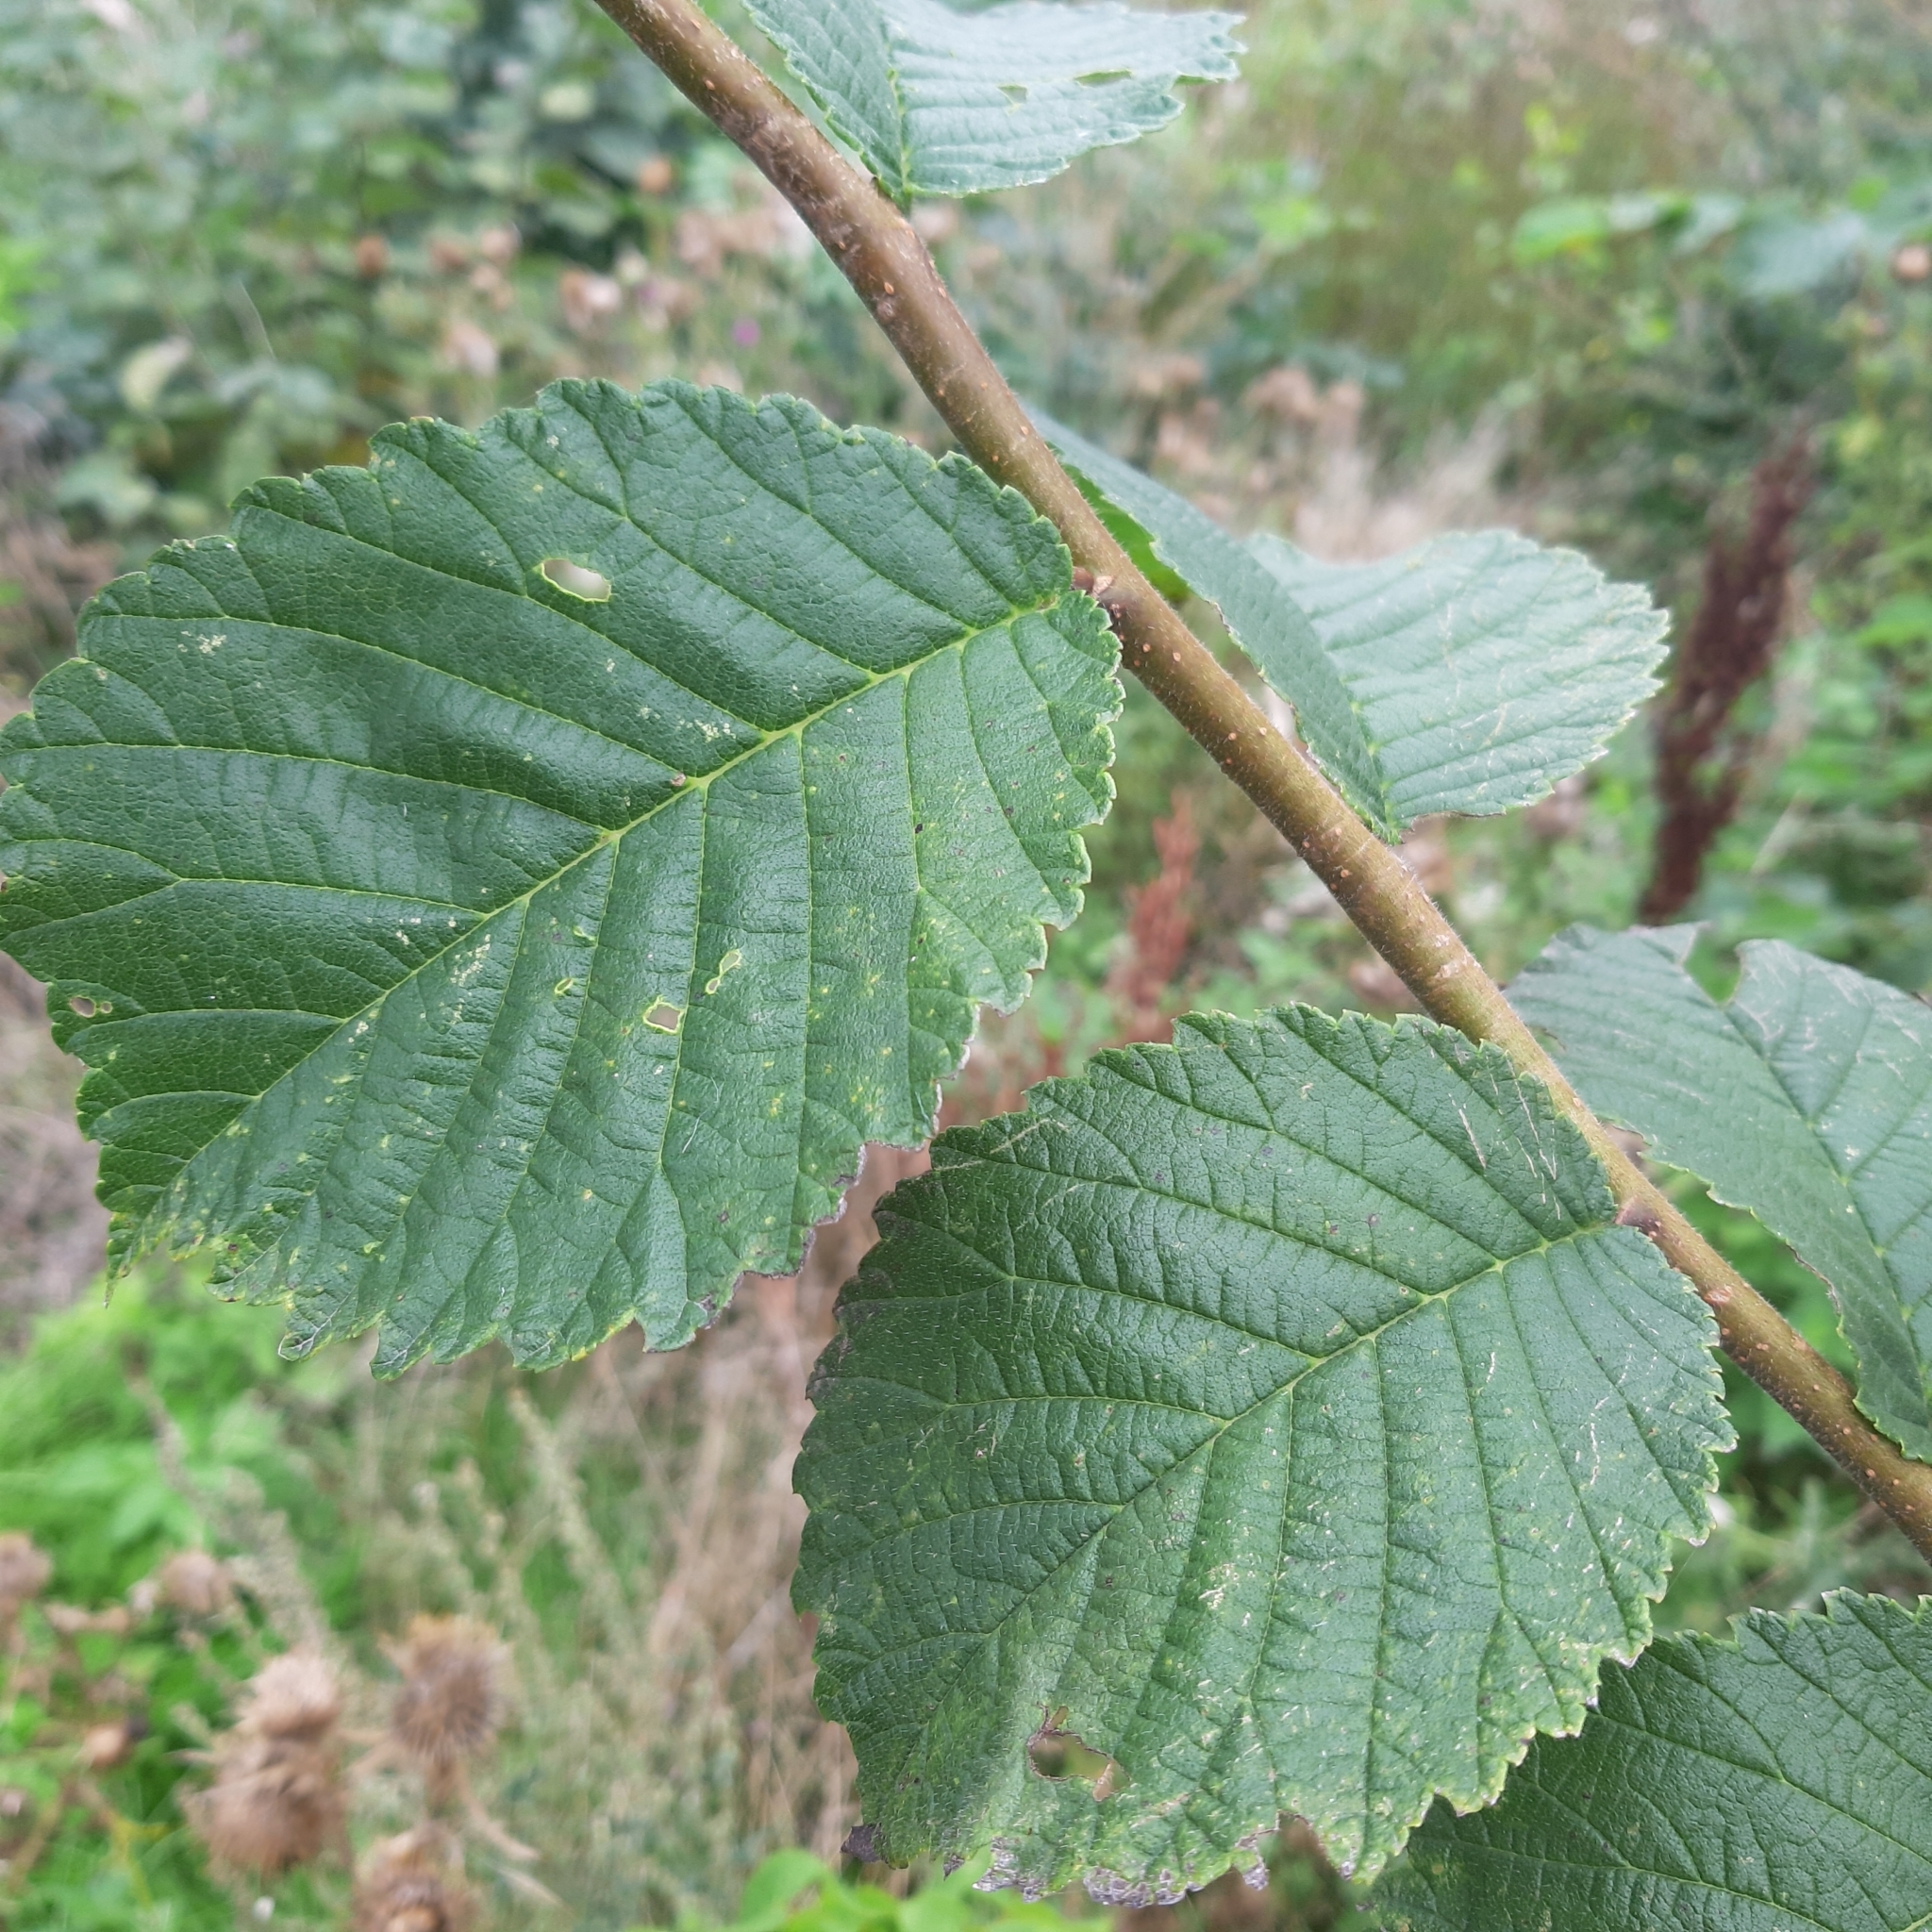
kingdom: Plantae
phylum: Tracheophyta
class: Magnoliopsida
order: Rosales
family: Ulmaceae
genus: Ulmus
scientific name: Ulmus glabra
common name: Wych elm
